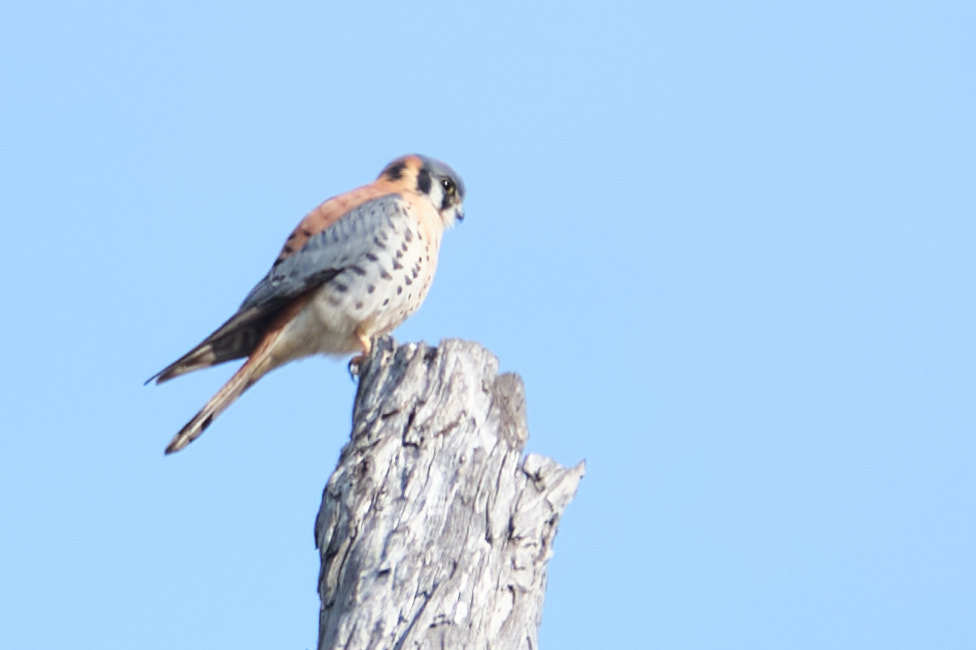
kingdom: Animalia
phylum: Chordata
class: Aves
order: Falconiformes
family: Falconidae
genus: Falco
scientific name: Falco sparverius
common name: American kestrel
